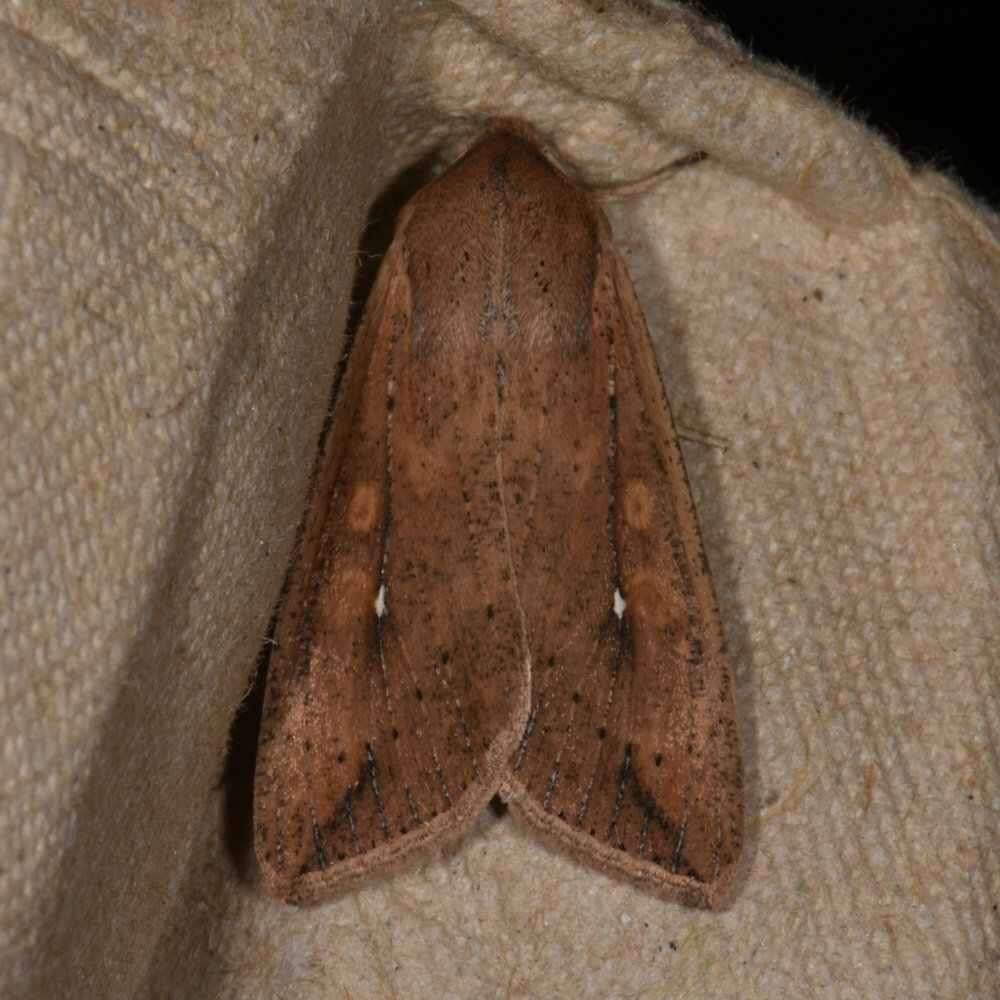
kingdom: Animalia
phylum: Arthropoda
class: Insecta
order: Lepidoptera
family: Noctuidae
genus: Mythimna
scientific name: Mythimna unipuncta
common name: White-speck
